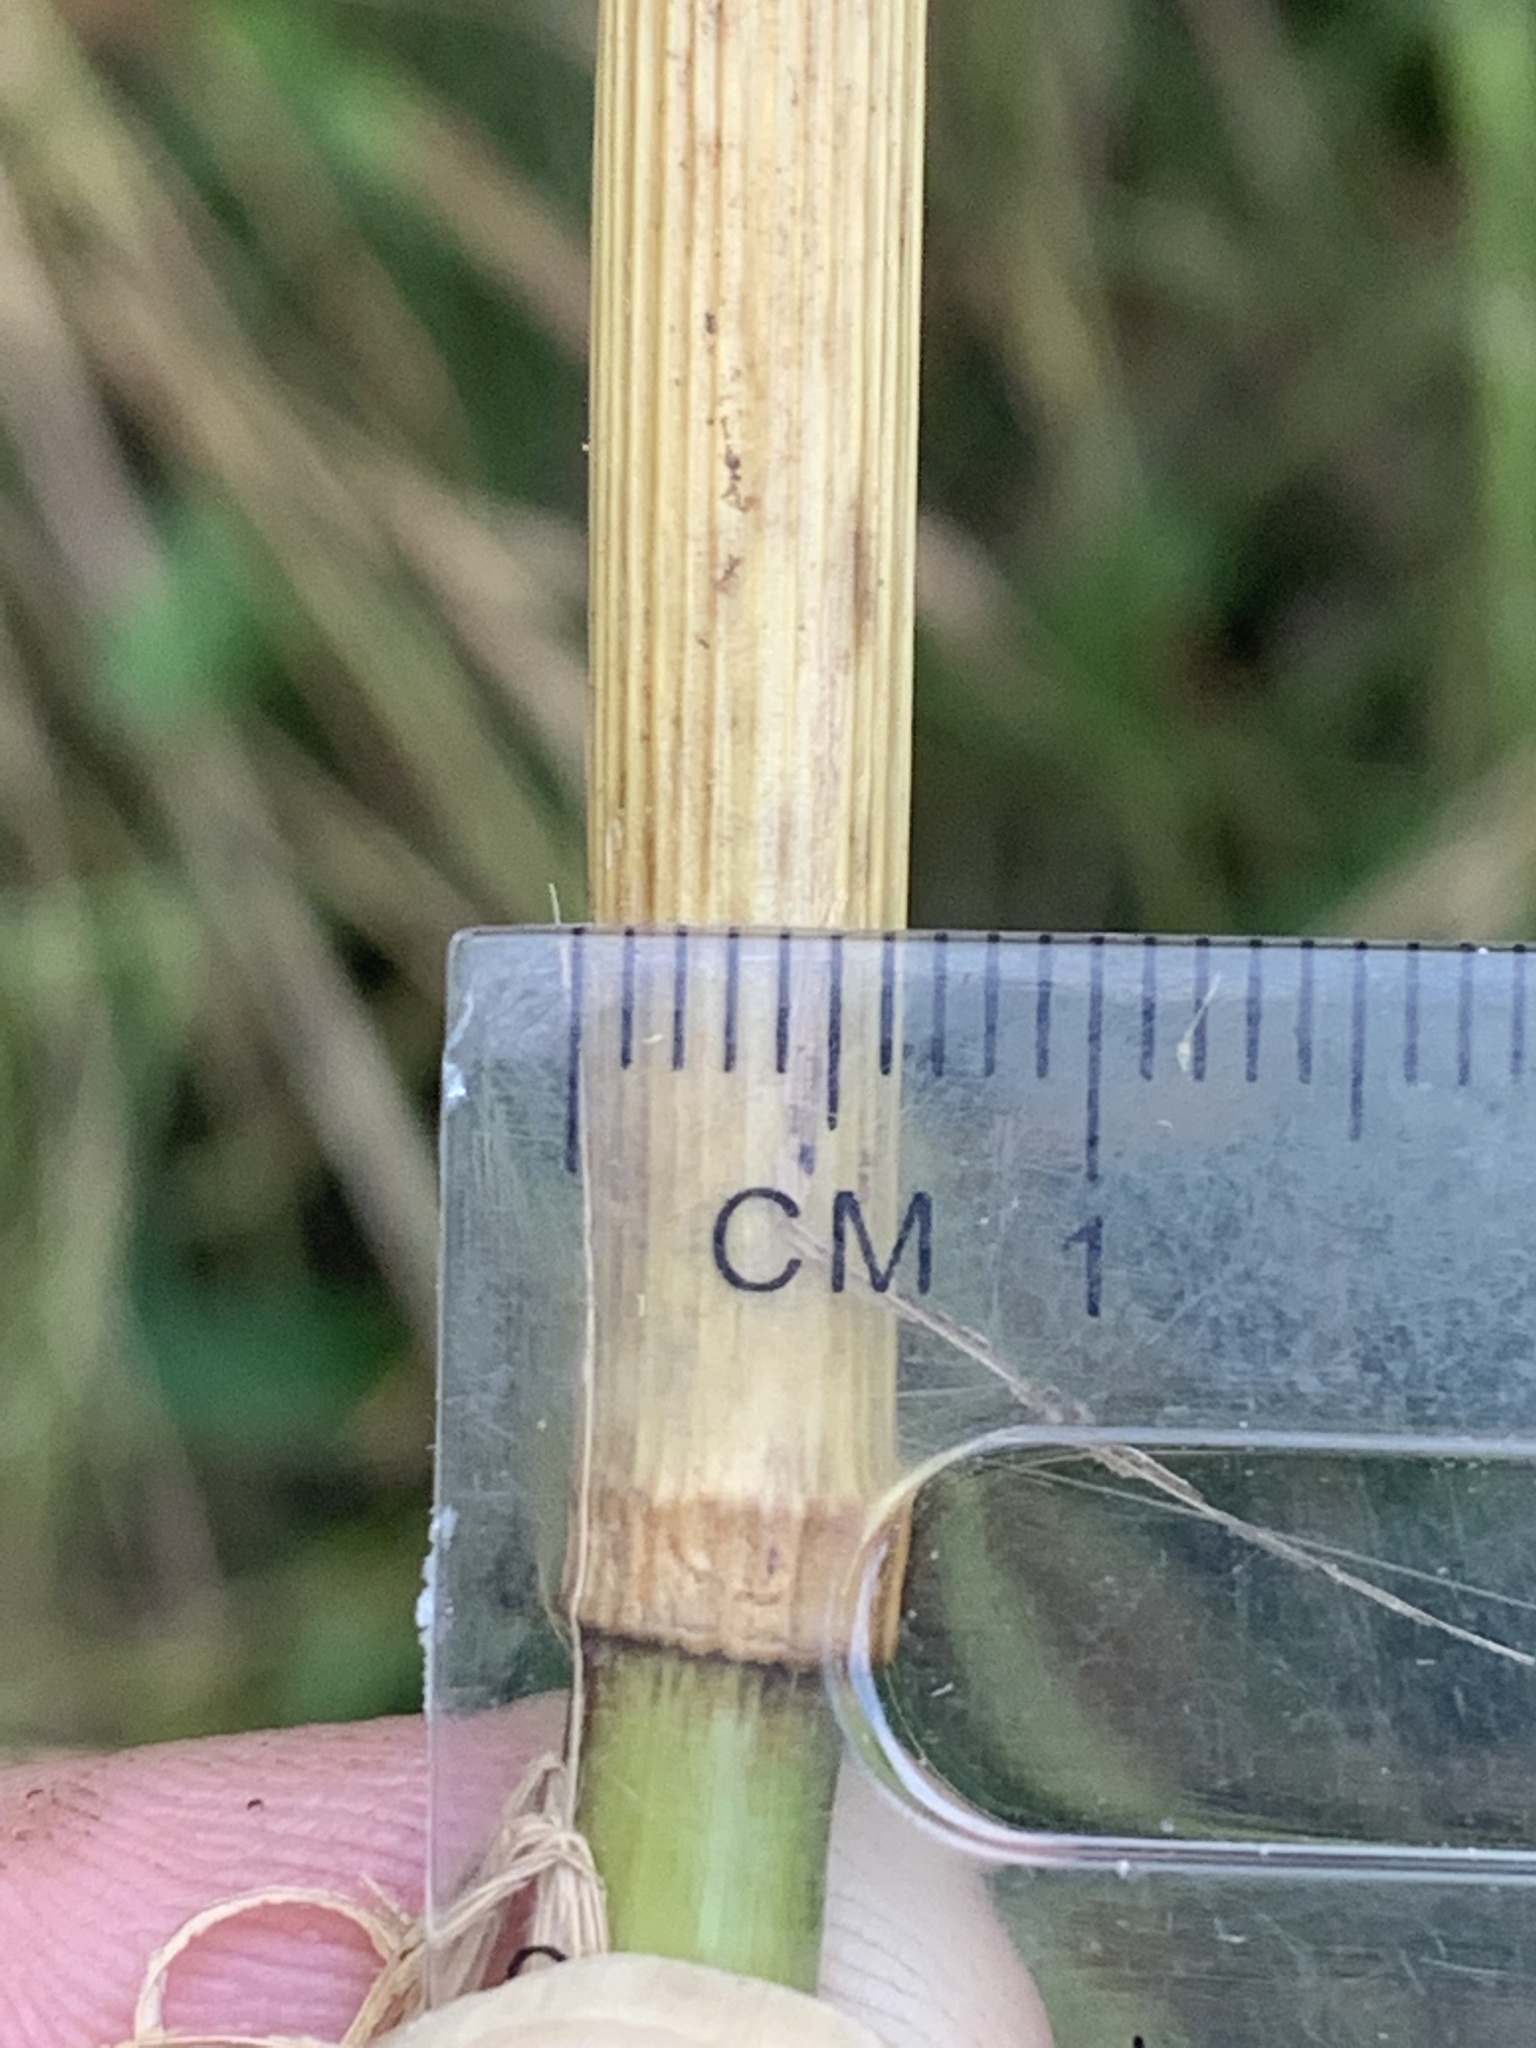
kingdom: Plantae
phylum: Tracheophyta
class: Liliopsida
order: Poales
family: Poaceae
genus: Glyceria
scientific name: Glyceria elata
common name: Tall mannagrass
